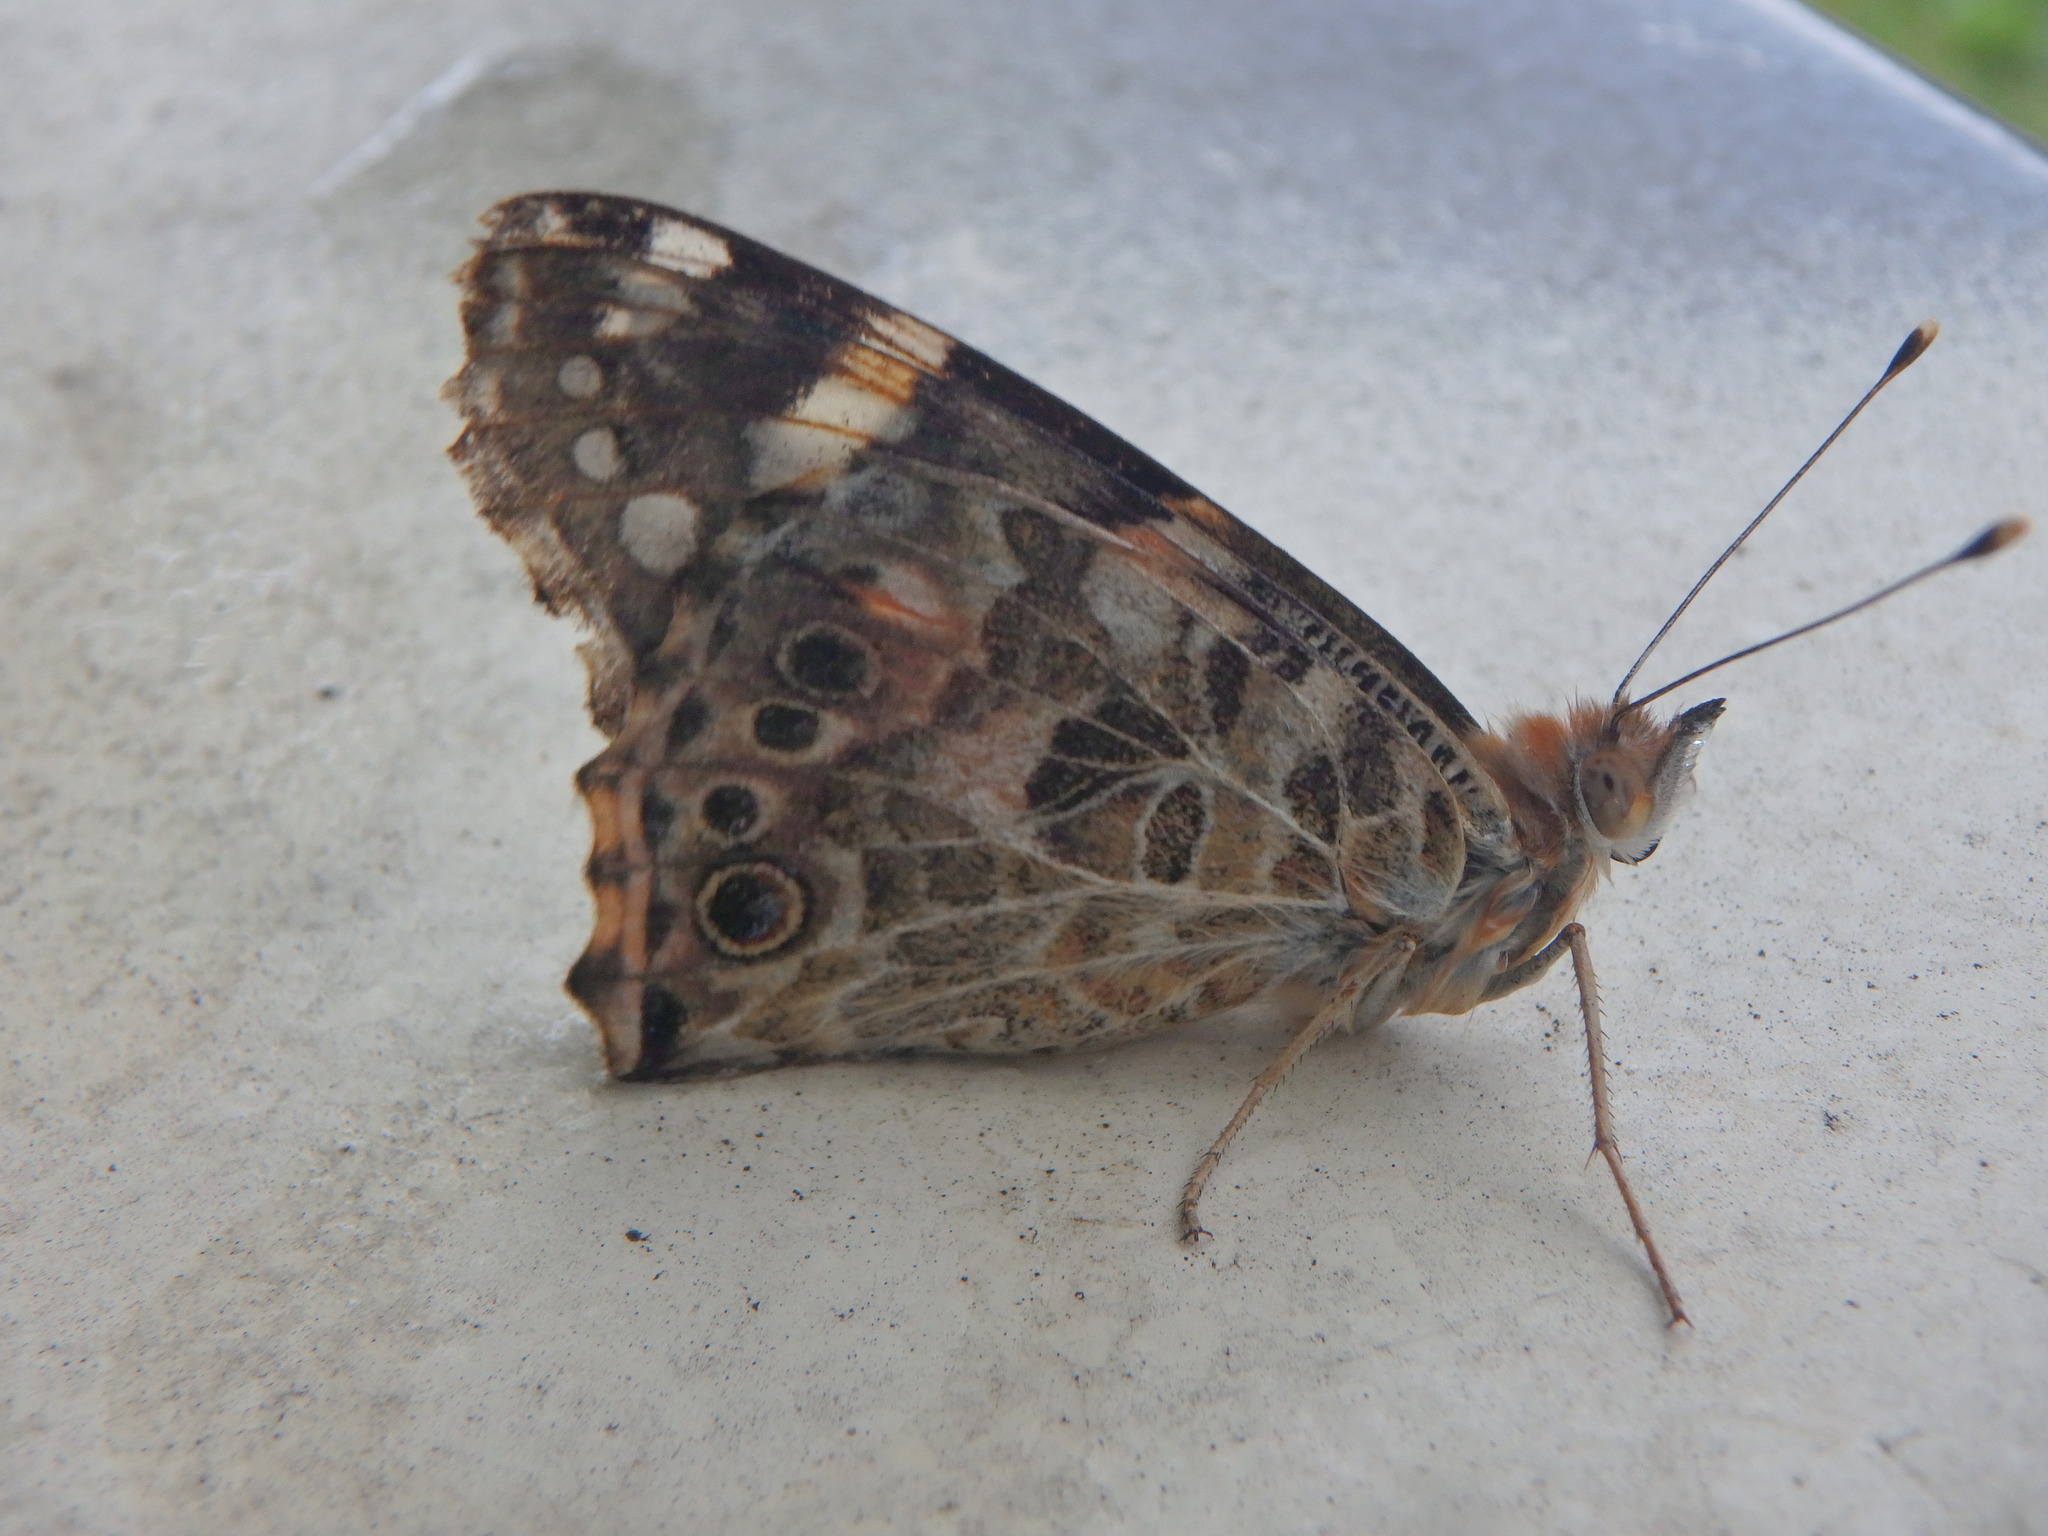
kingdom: Animalia
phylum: Arthropoda
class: Insecta
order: Lepidoptera
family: Nymphalidae
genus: Vanessa
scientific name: Vanessa cardui
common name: Painted lady
